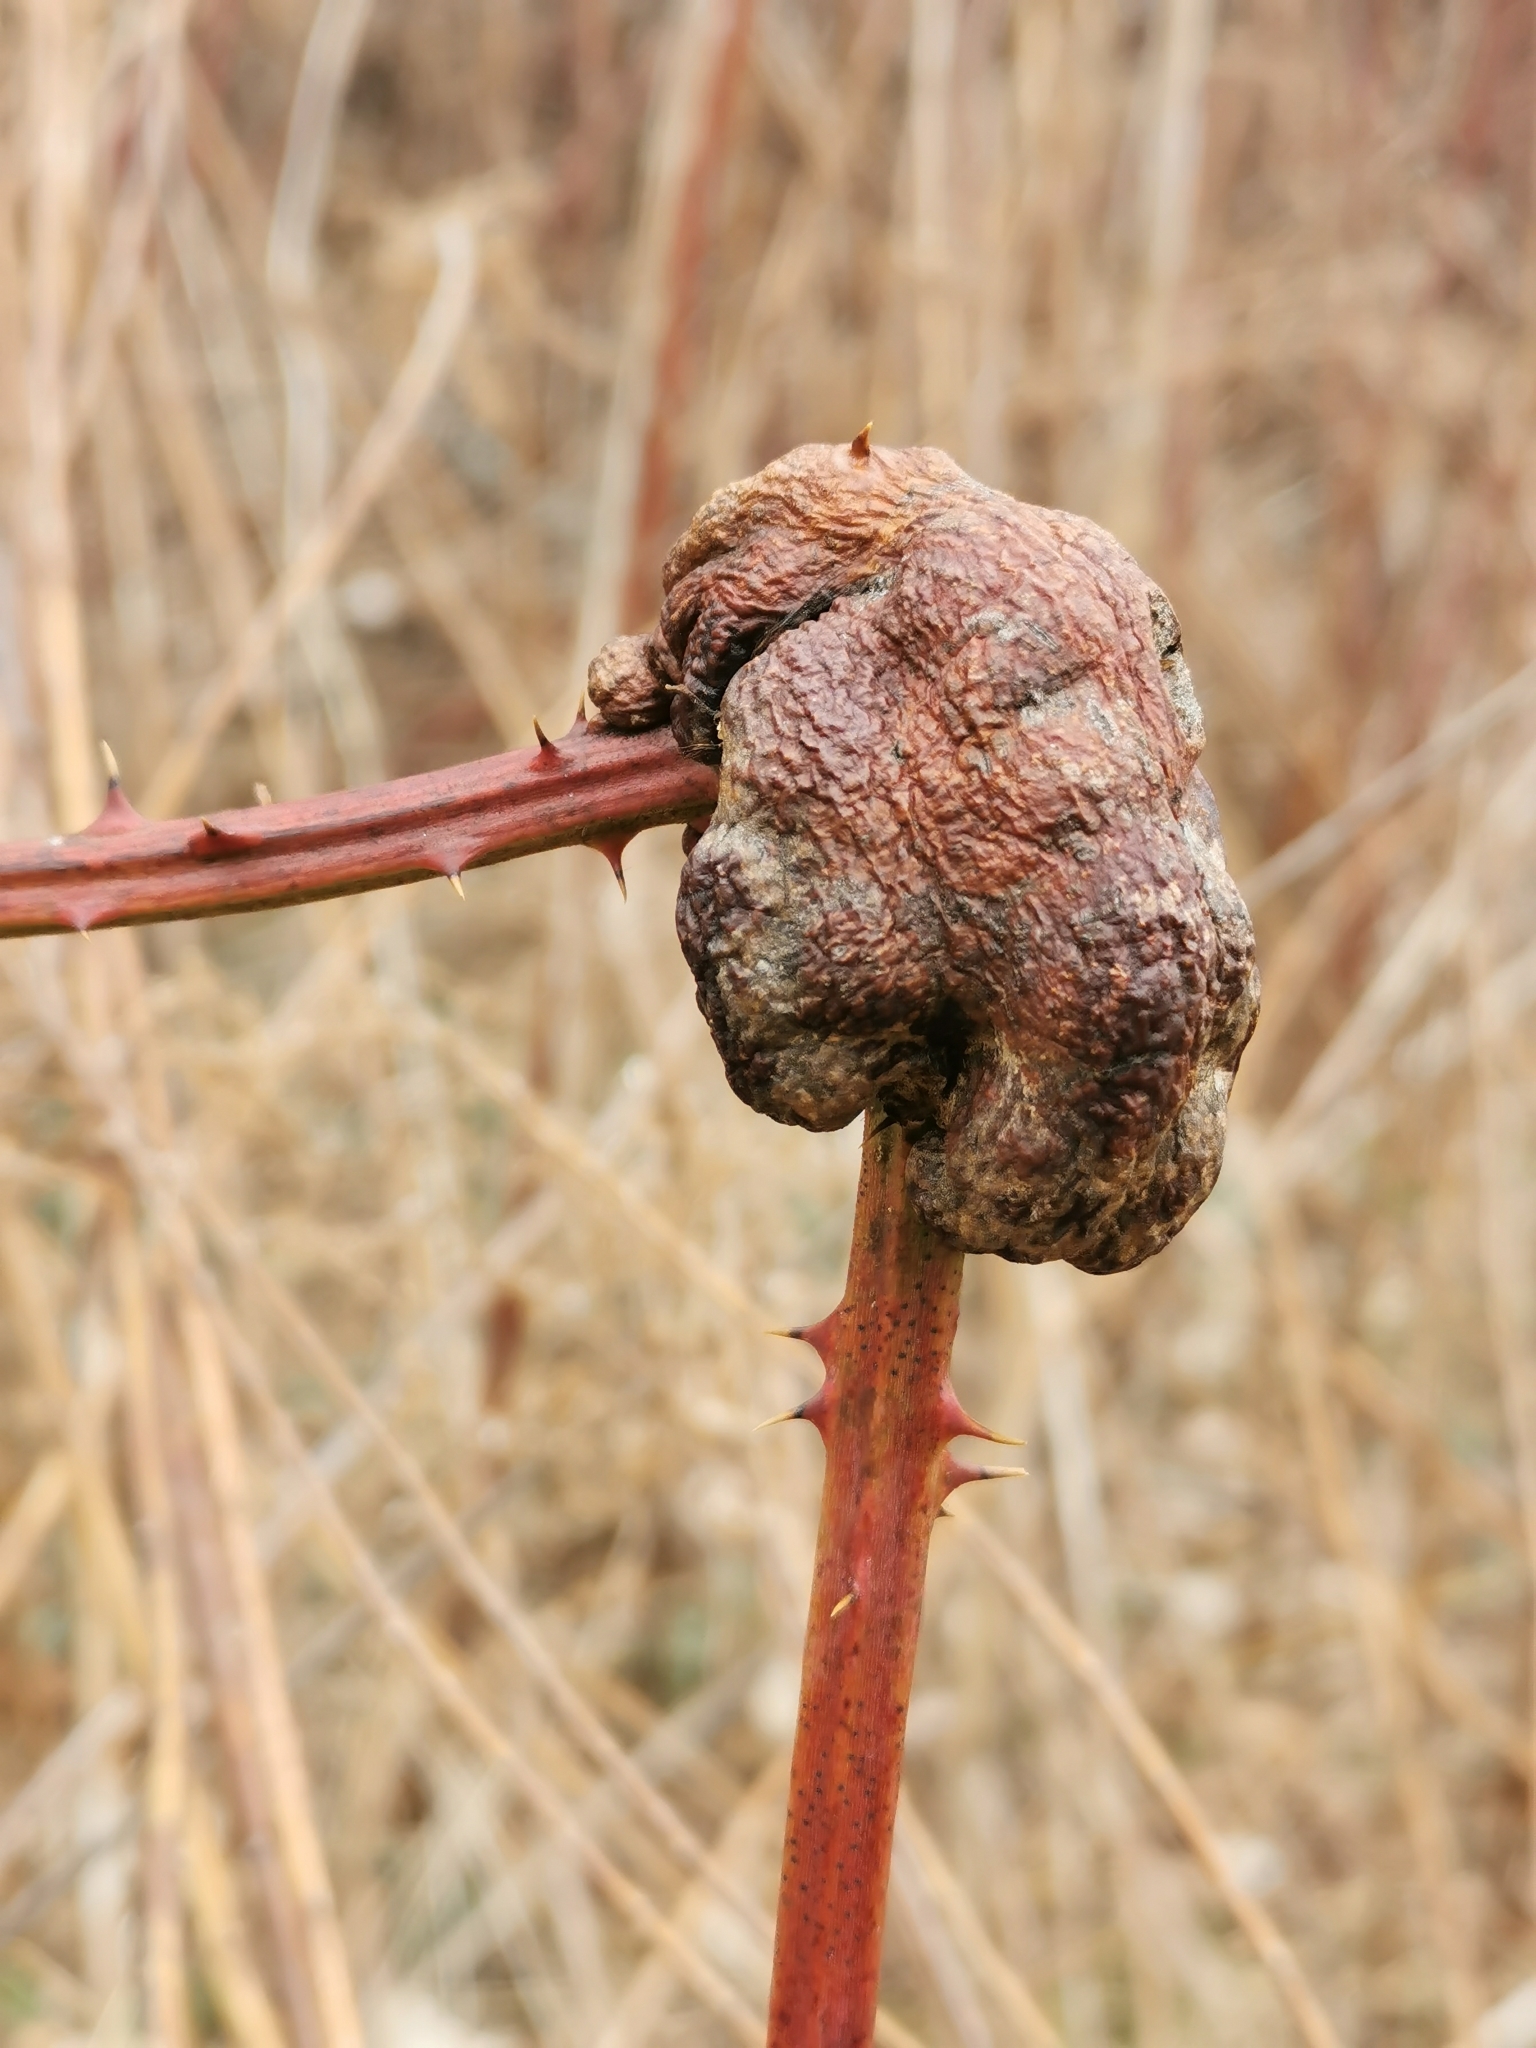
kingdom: Animalia
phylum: Arthropoda
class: Insecta
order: Hymenoptera
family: Cynipidae
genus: Diastrophus
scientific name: Diastrophus
